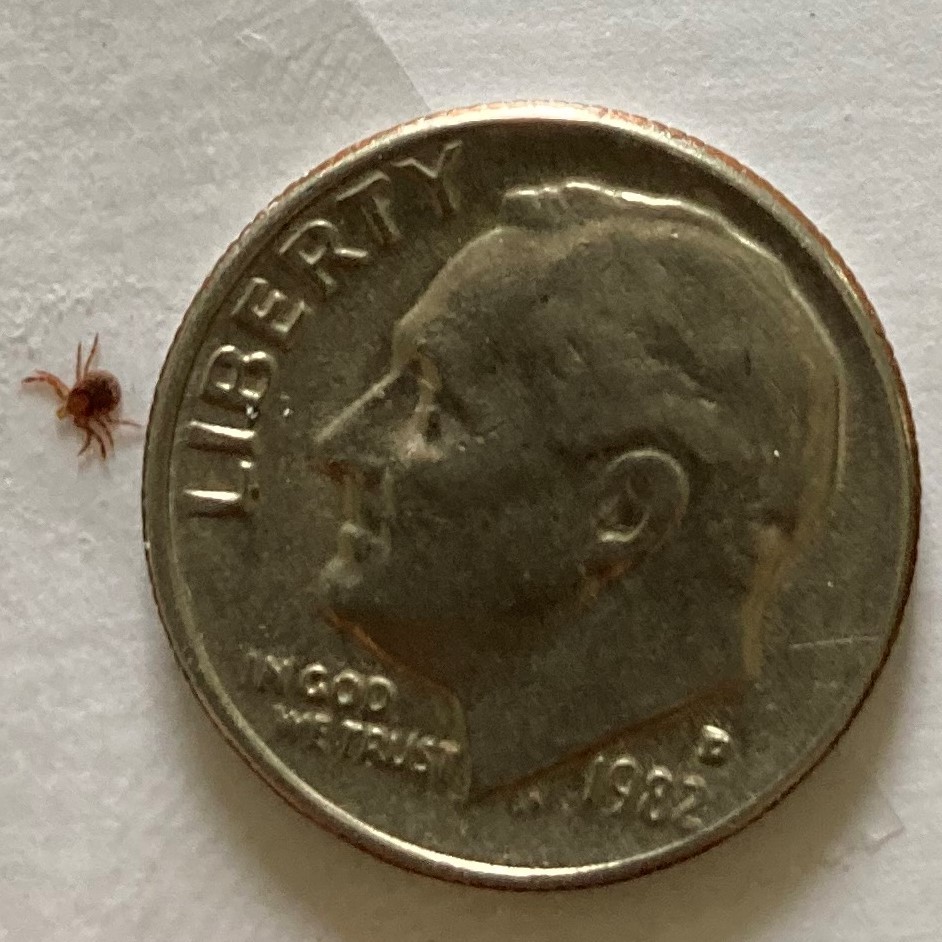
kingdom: Animalia
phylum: Arthropoda
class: Arachnida
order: Ixodida
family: Ixodidae
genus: Amblyomma
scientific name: Amblyomma americanum
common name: Lone star tick
